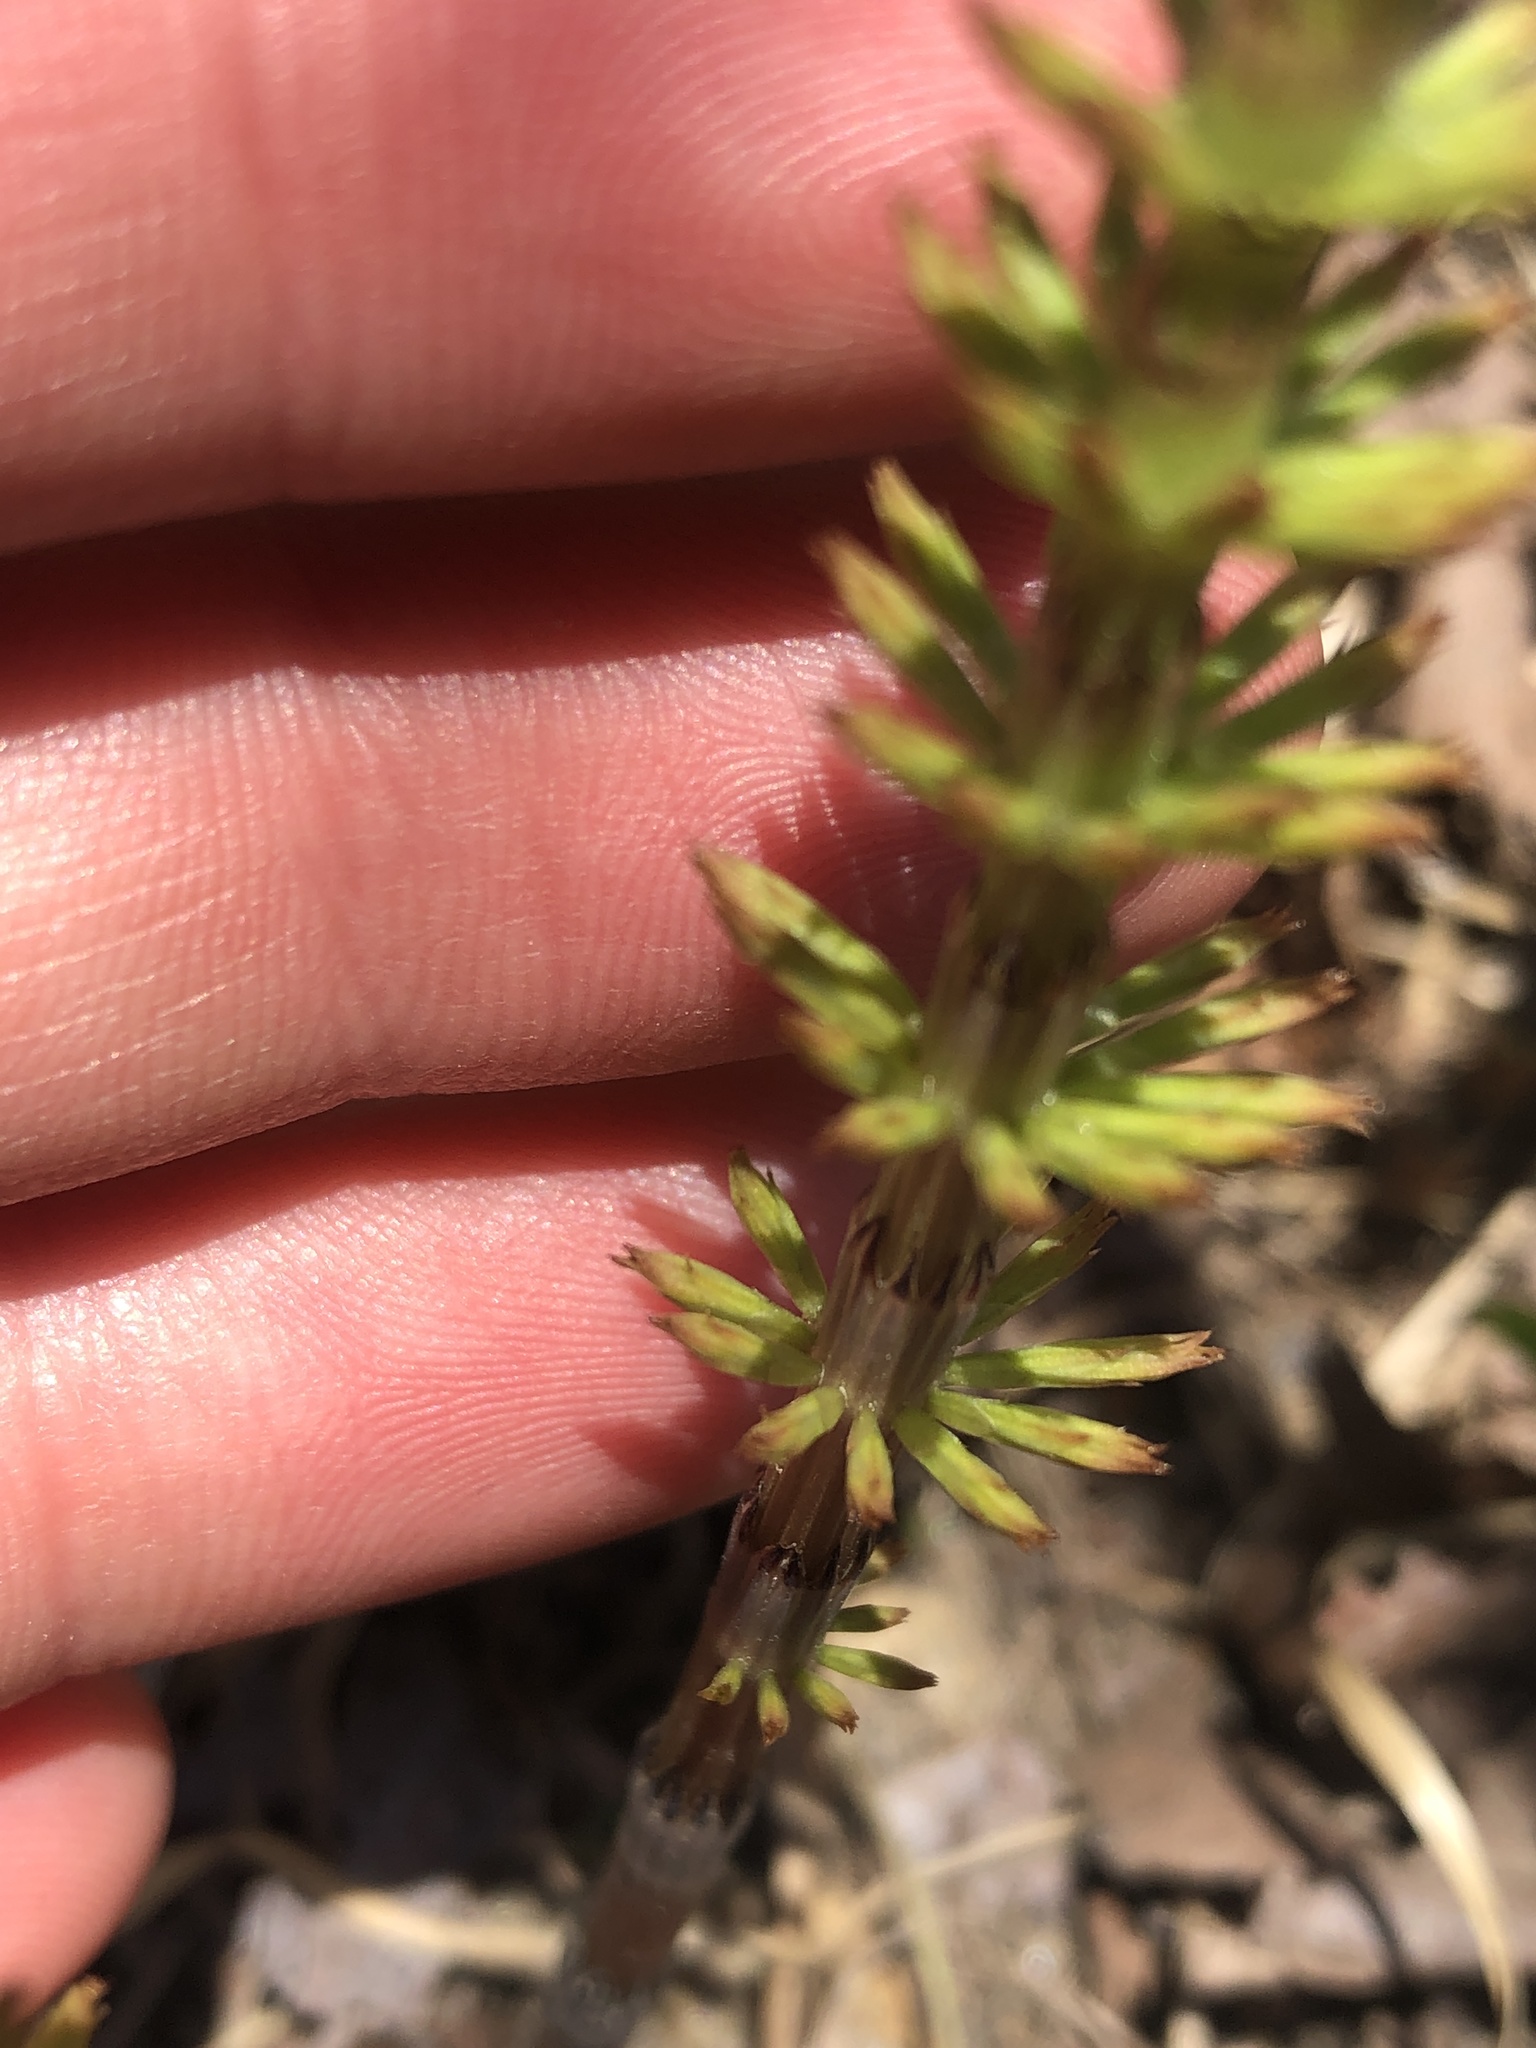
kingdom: Plantae
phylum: Tracheophyta
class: Polypodiopsida
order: Equisetales
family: Equisetaceae
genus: Equisetum
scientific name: Equisetum arvense
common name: Field horsetail
